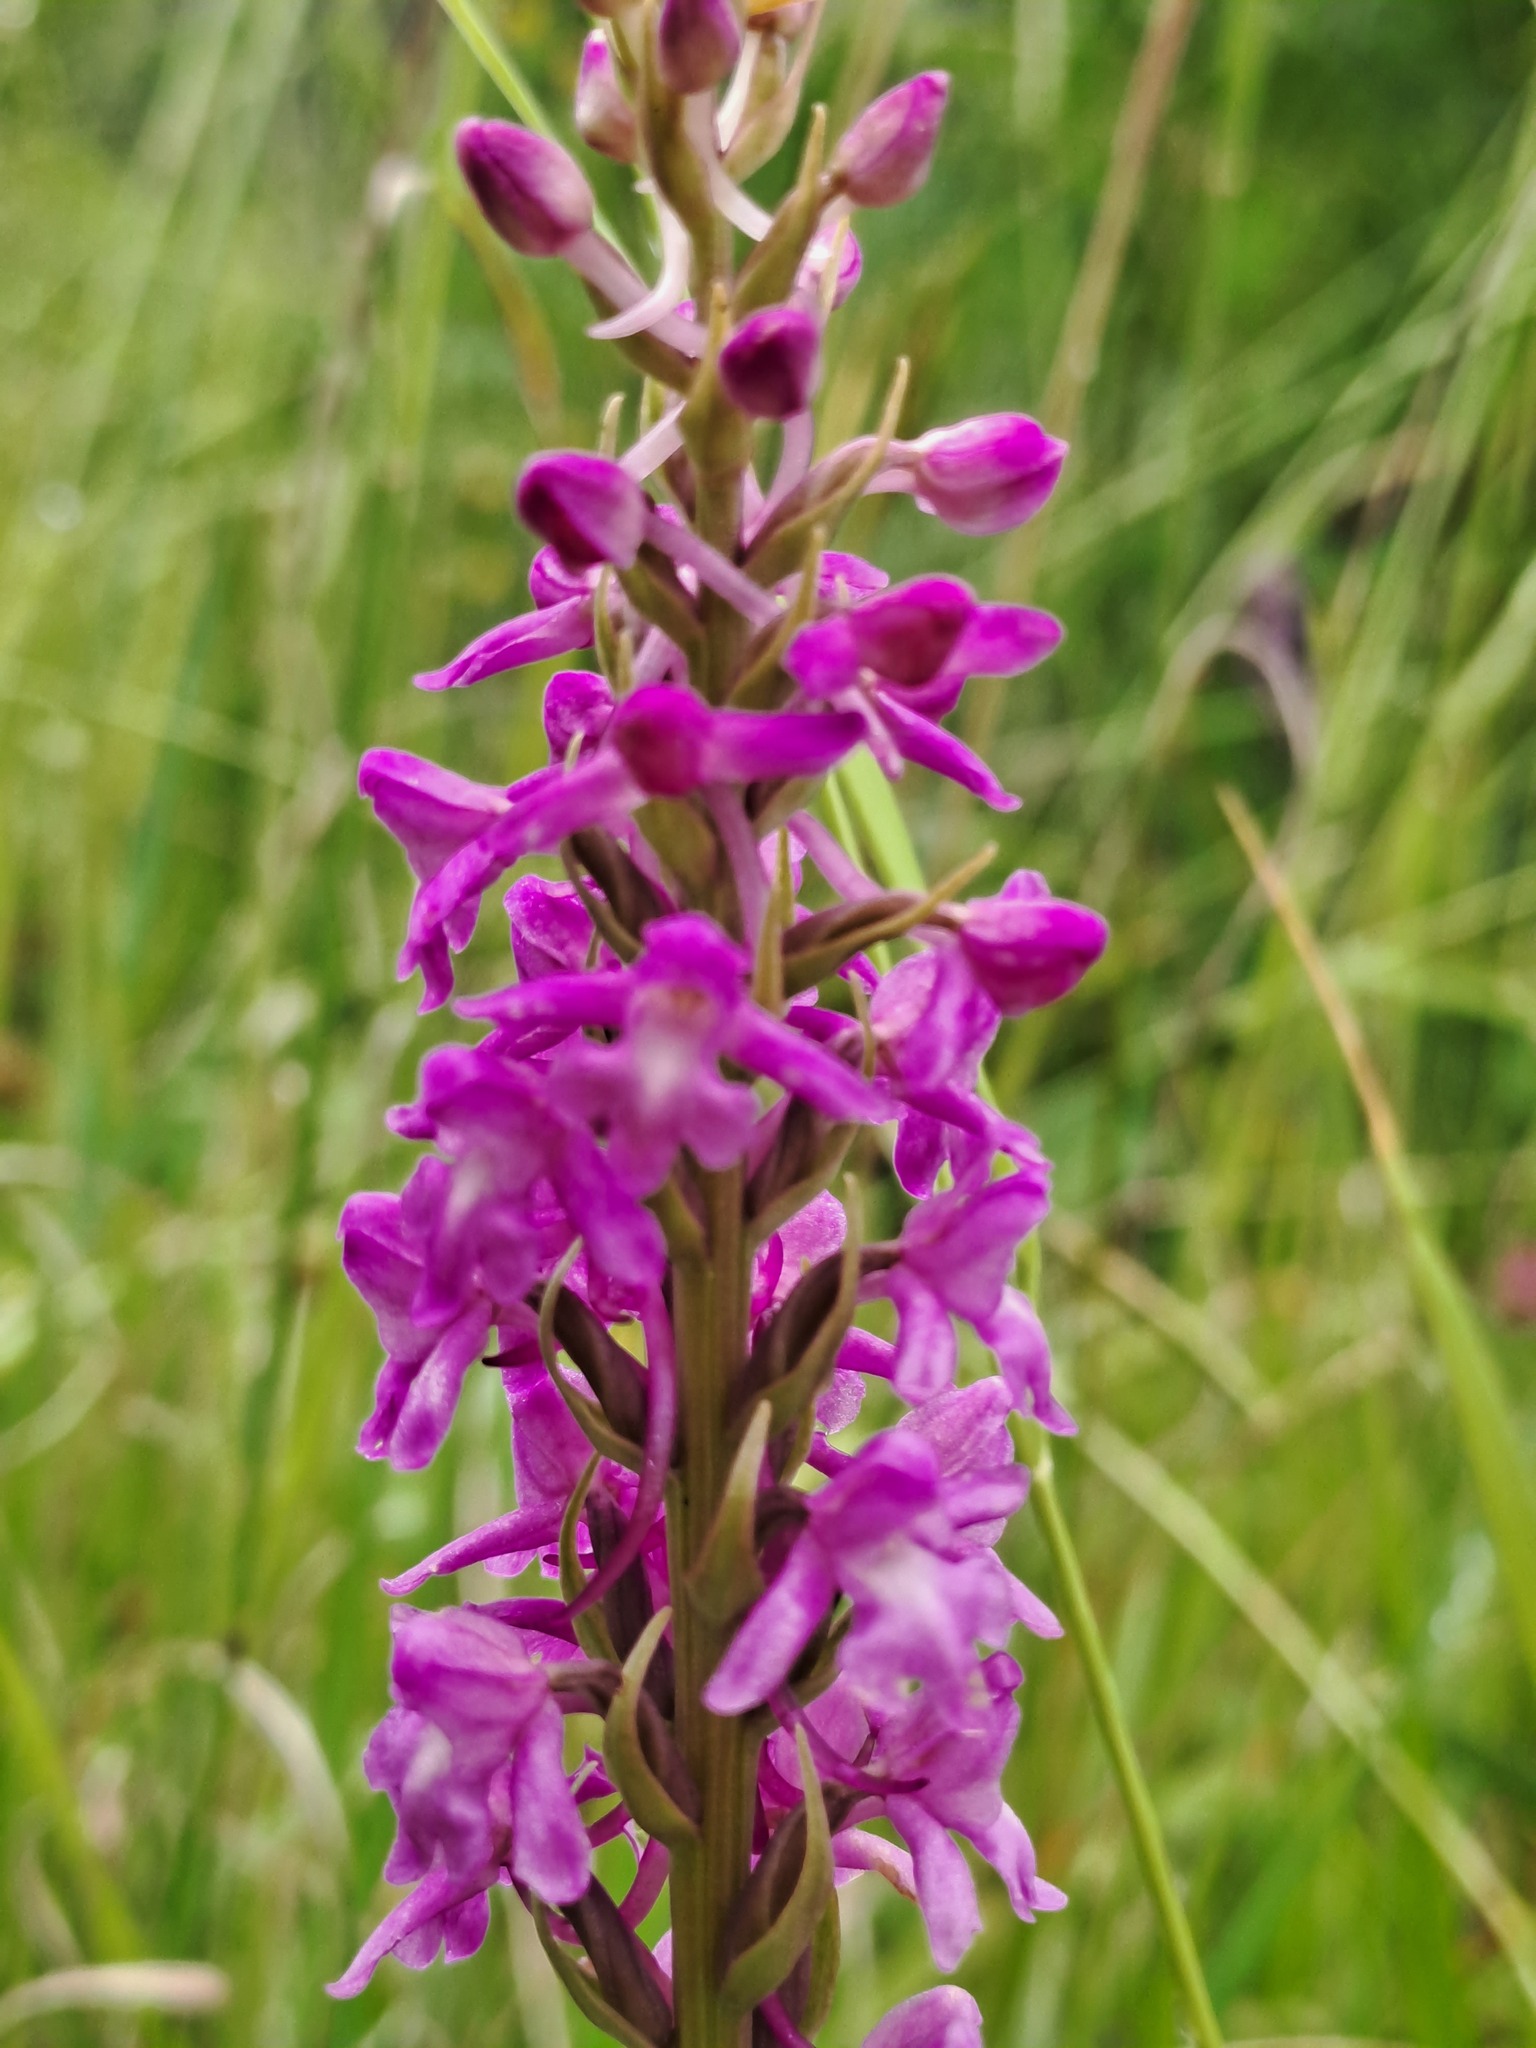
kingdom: Plantae
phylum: Tracheophyta
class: Liliopsida
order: Asparagales
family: Orchidaceae
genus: Gymnadenia
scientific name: Gymnadenia conopsea
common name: Fragrant orchid
